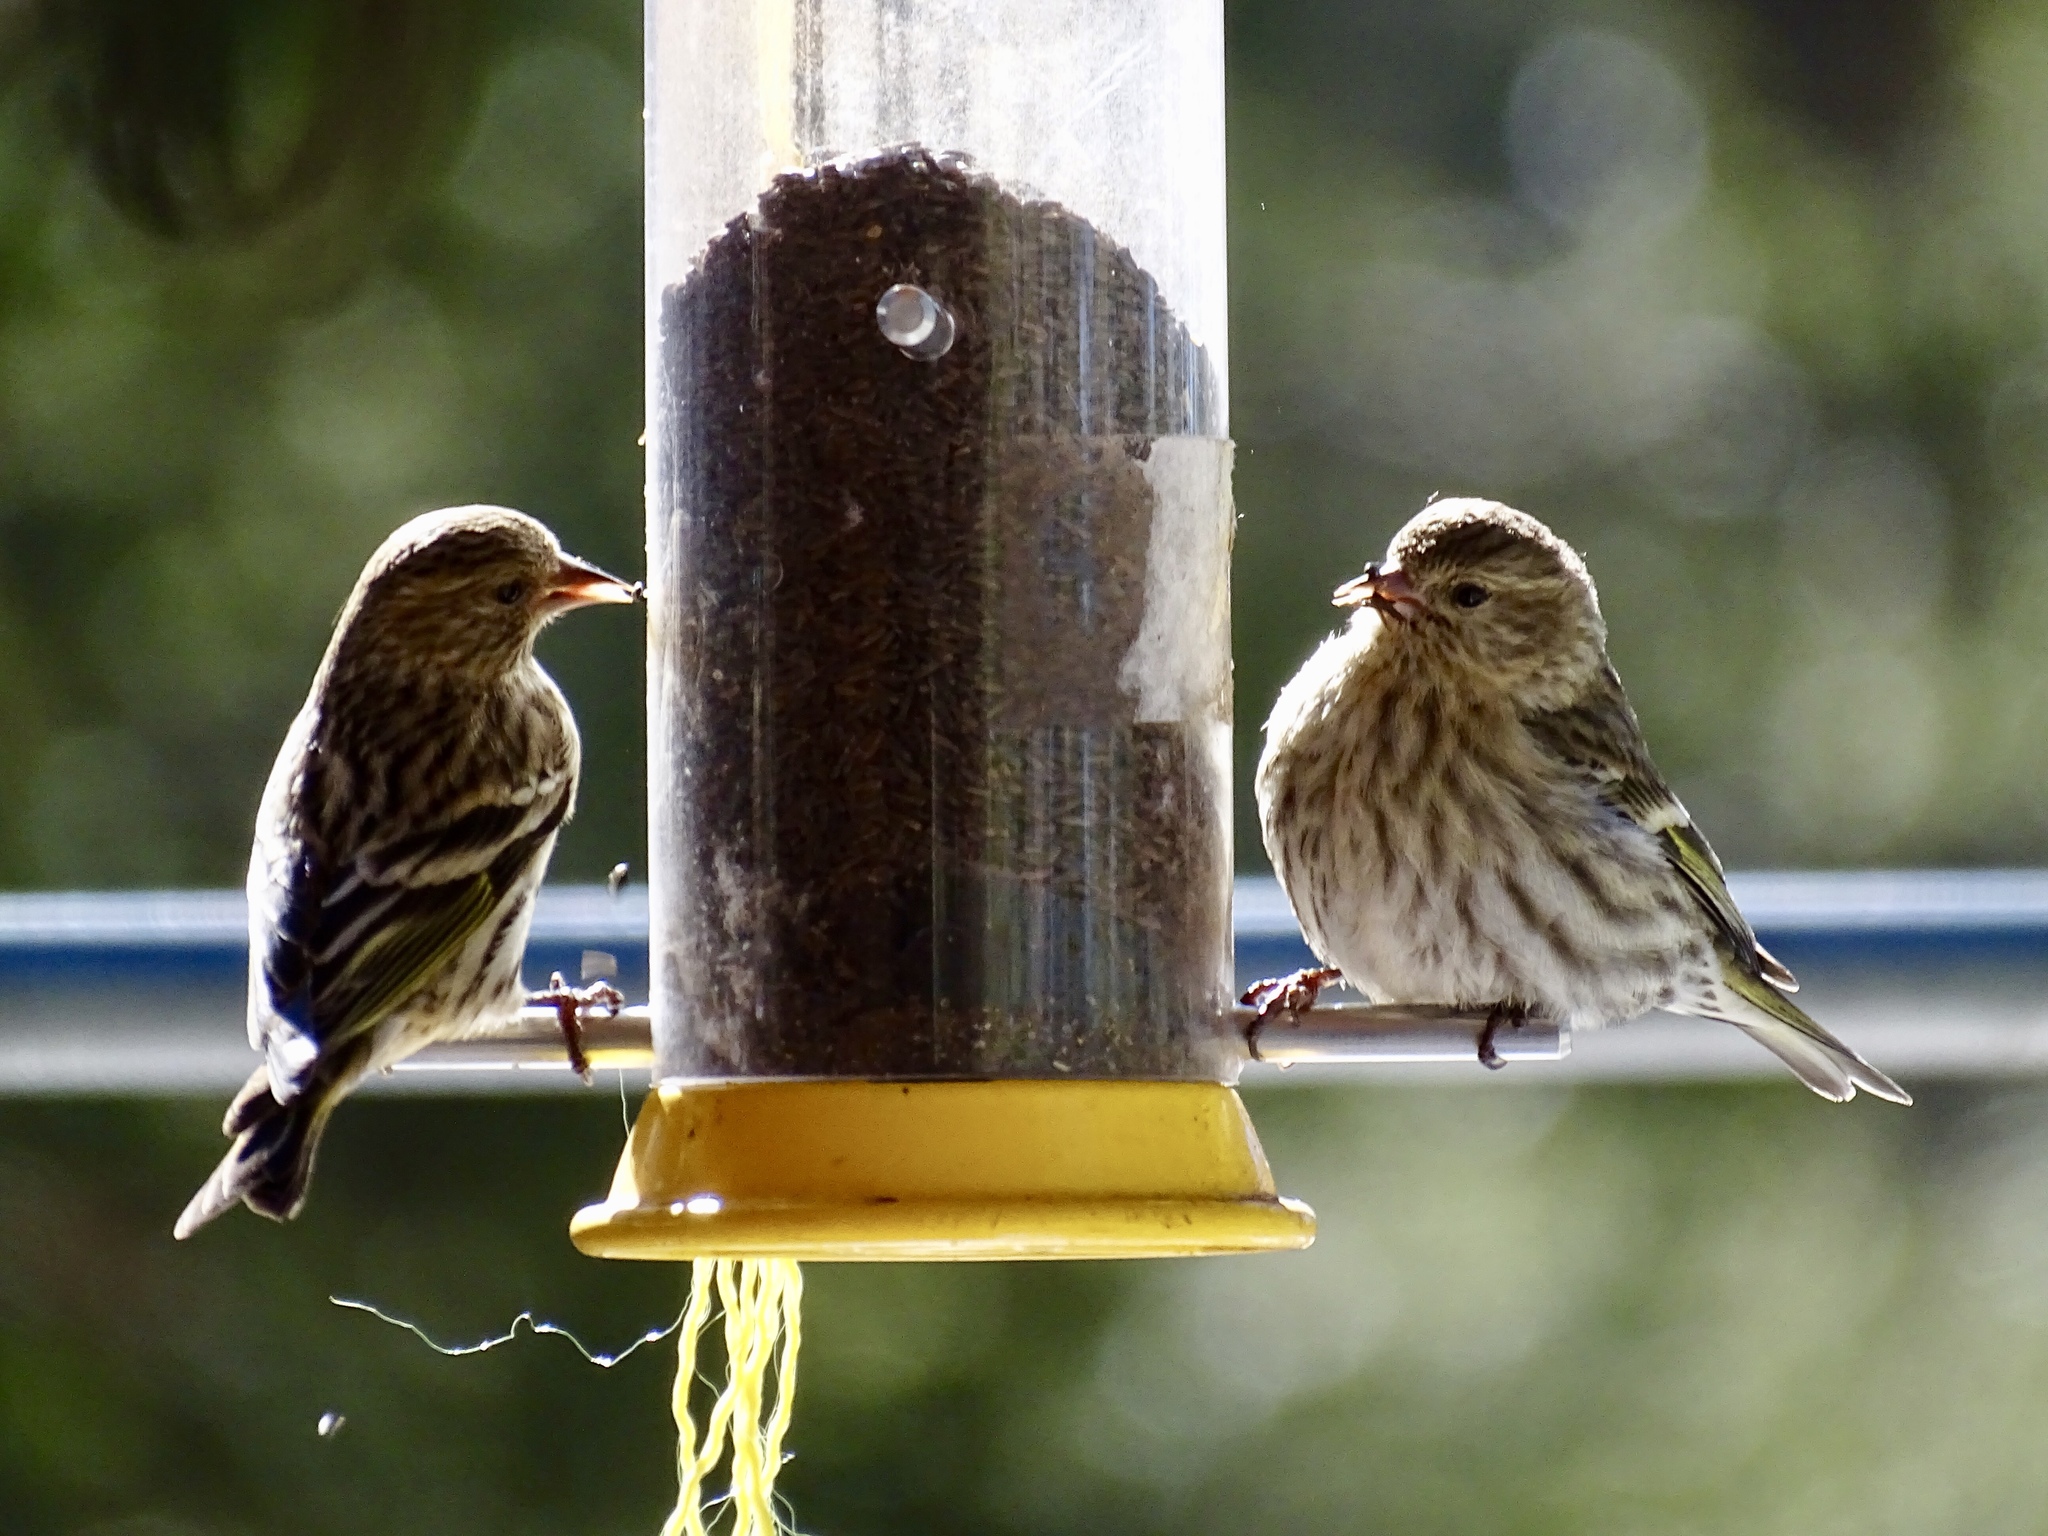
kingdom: Animalia
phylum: Chordata
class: Aves
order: Passeriformes
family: Fringillidae
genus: Spinus
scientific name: Spinus pinus
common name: Pine siskin
